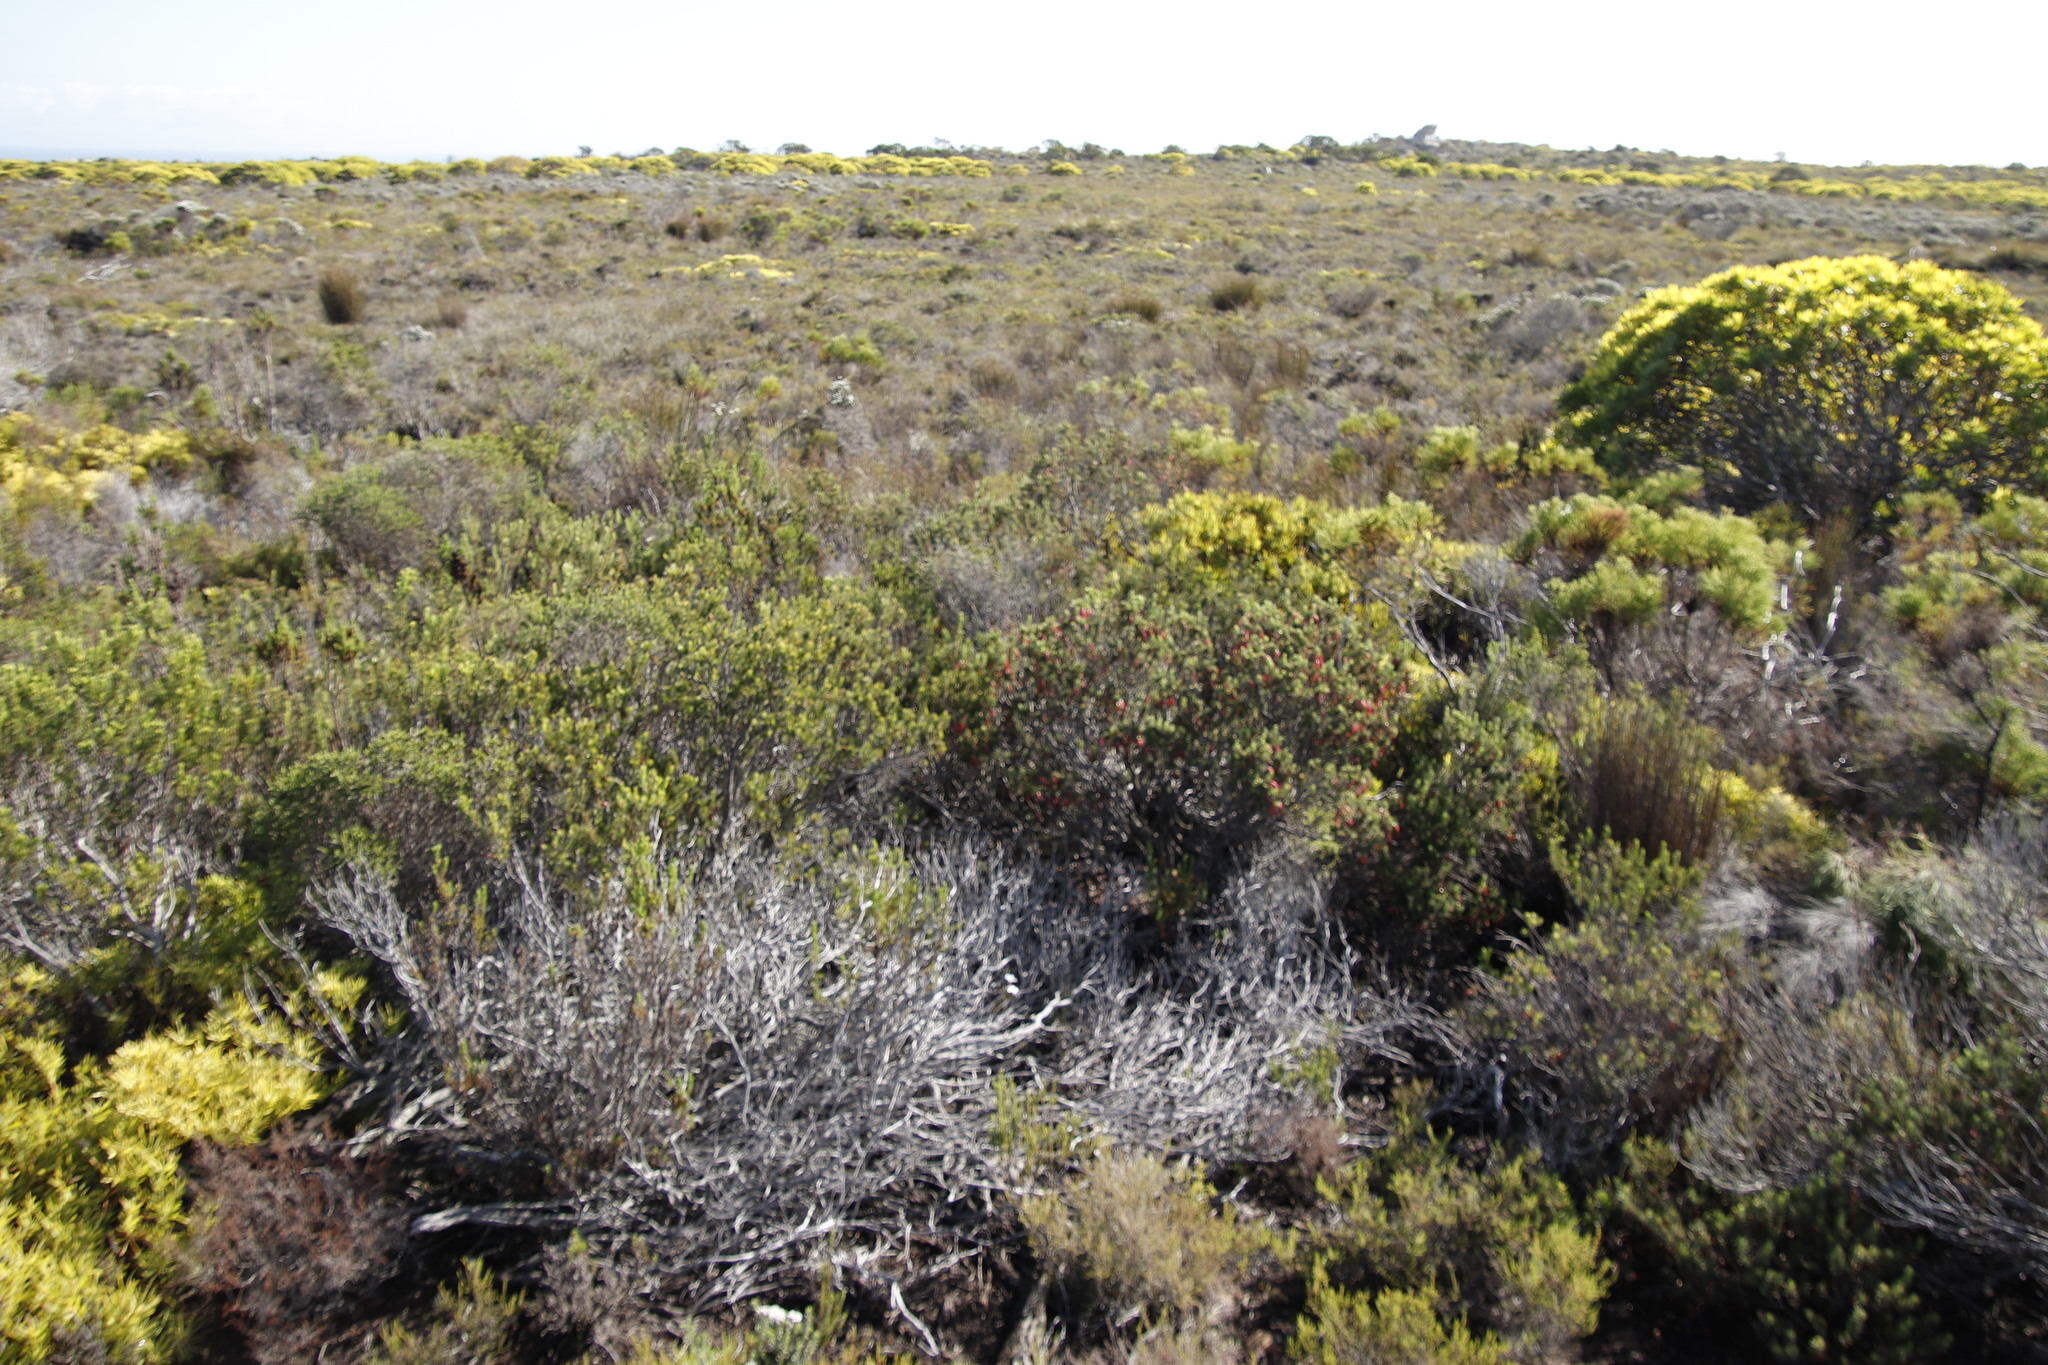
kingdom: Plantae
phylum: Tracheophyta
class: Magnoliopsida
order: Ericales
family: Ericaceae
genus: Erica
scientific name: Erica plukenetii
